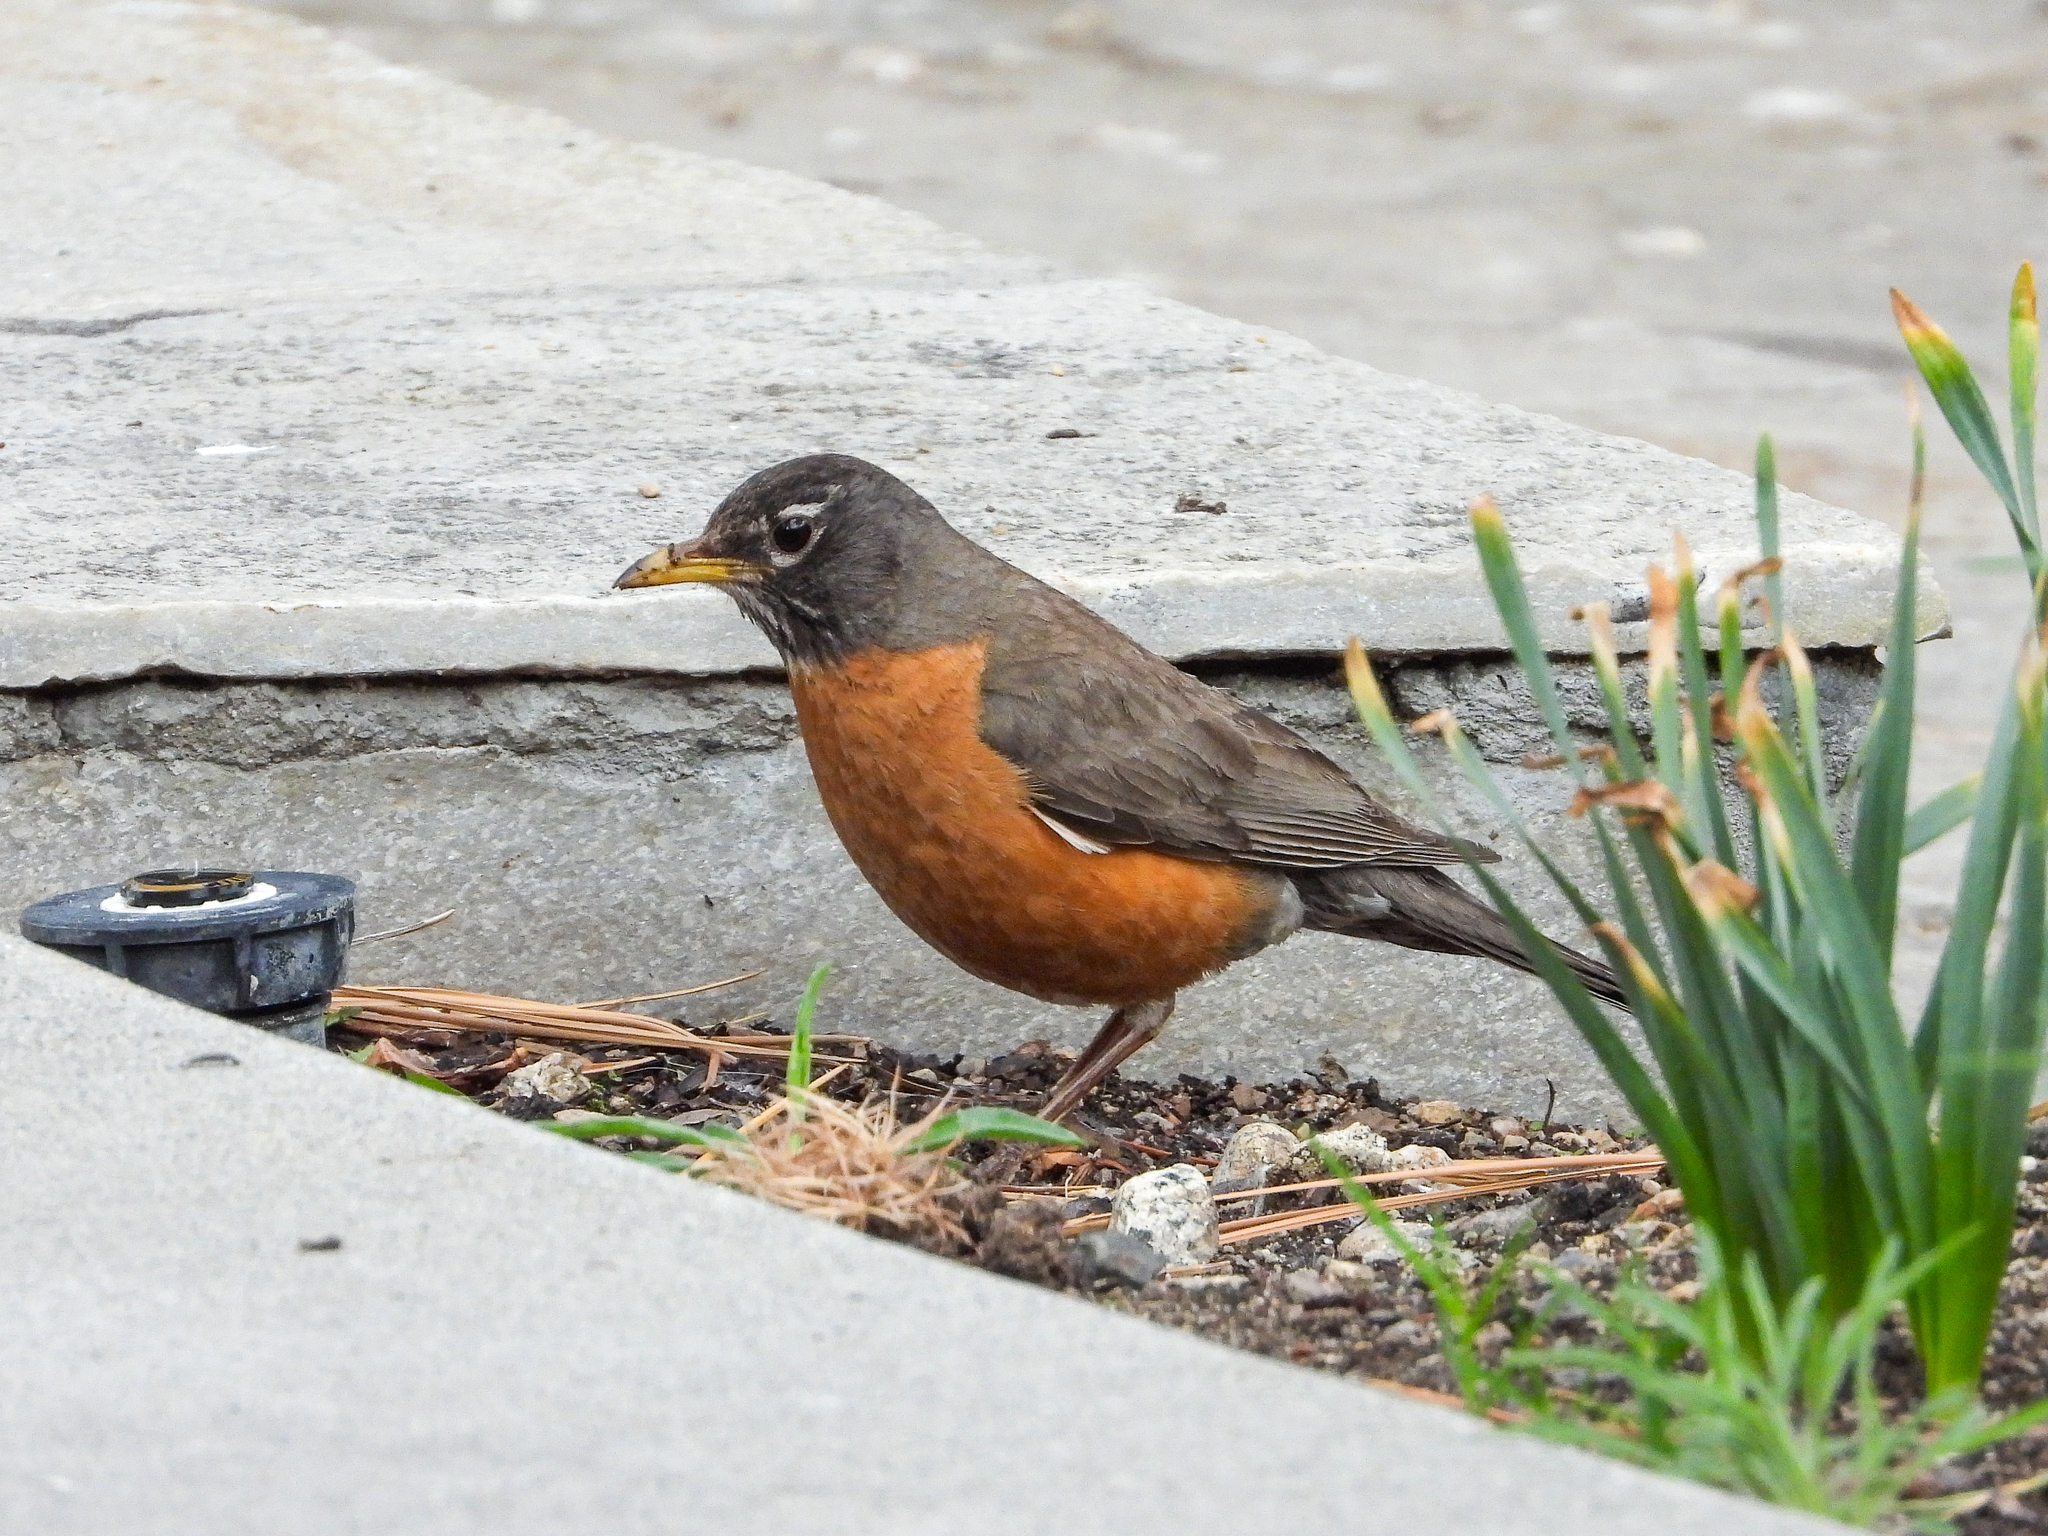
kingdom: Animalia
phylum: Chordata
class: Aves
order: Passeriformes
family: Turdidae
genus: Turdus
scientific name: Turdus migratorius
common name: American robin
